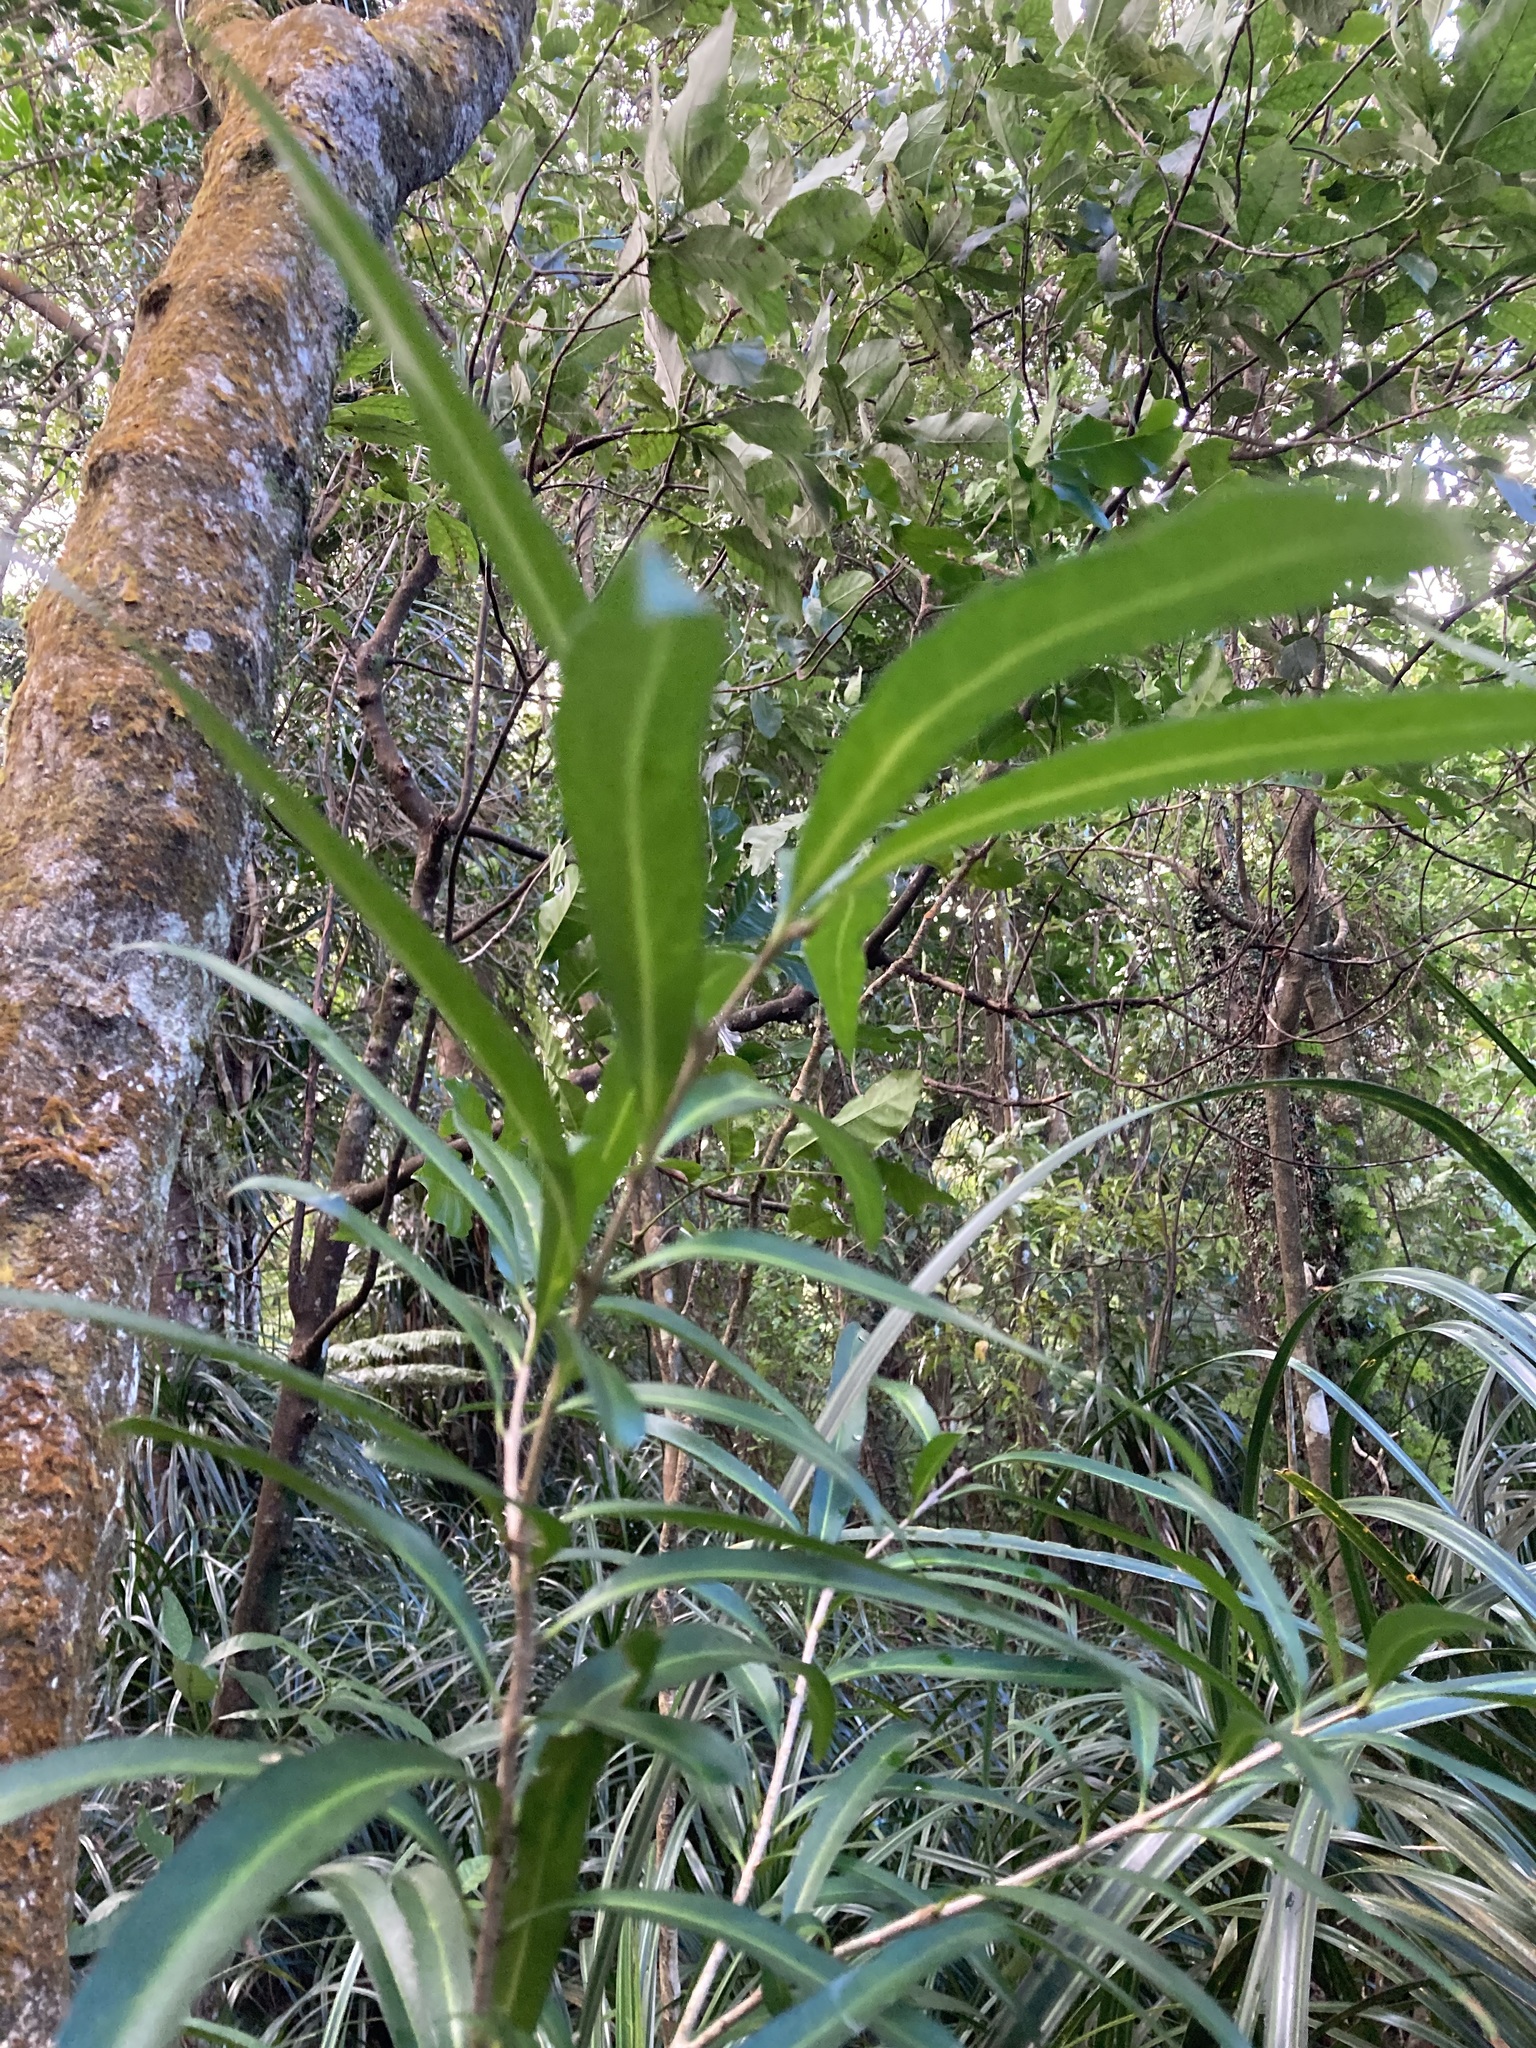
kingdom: Plantae
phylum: Tracheophyta
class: Magnoliopsida
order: Lamiales
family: Oleaceae
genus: Nestegis
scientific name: Nestegis lanceolata
